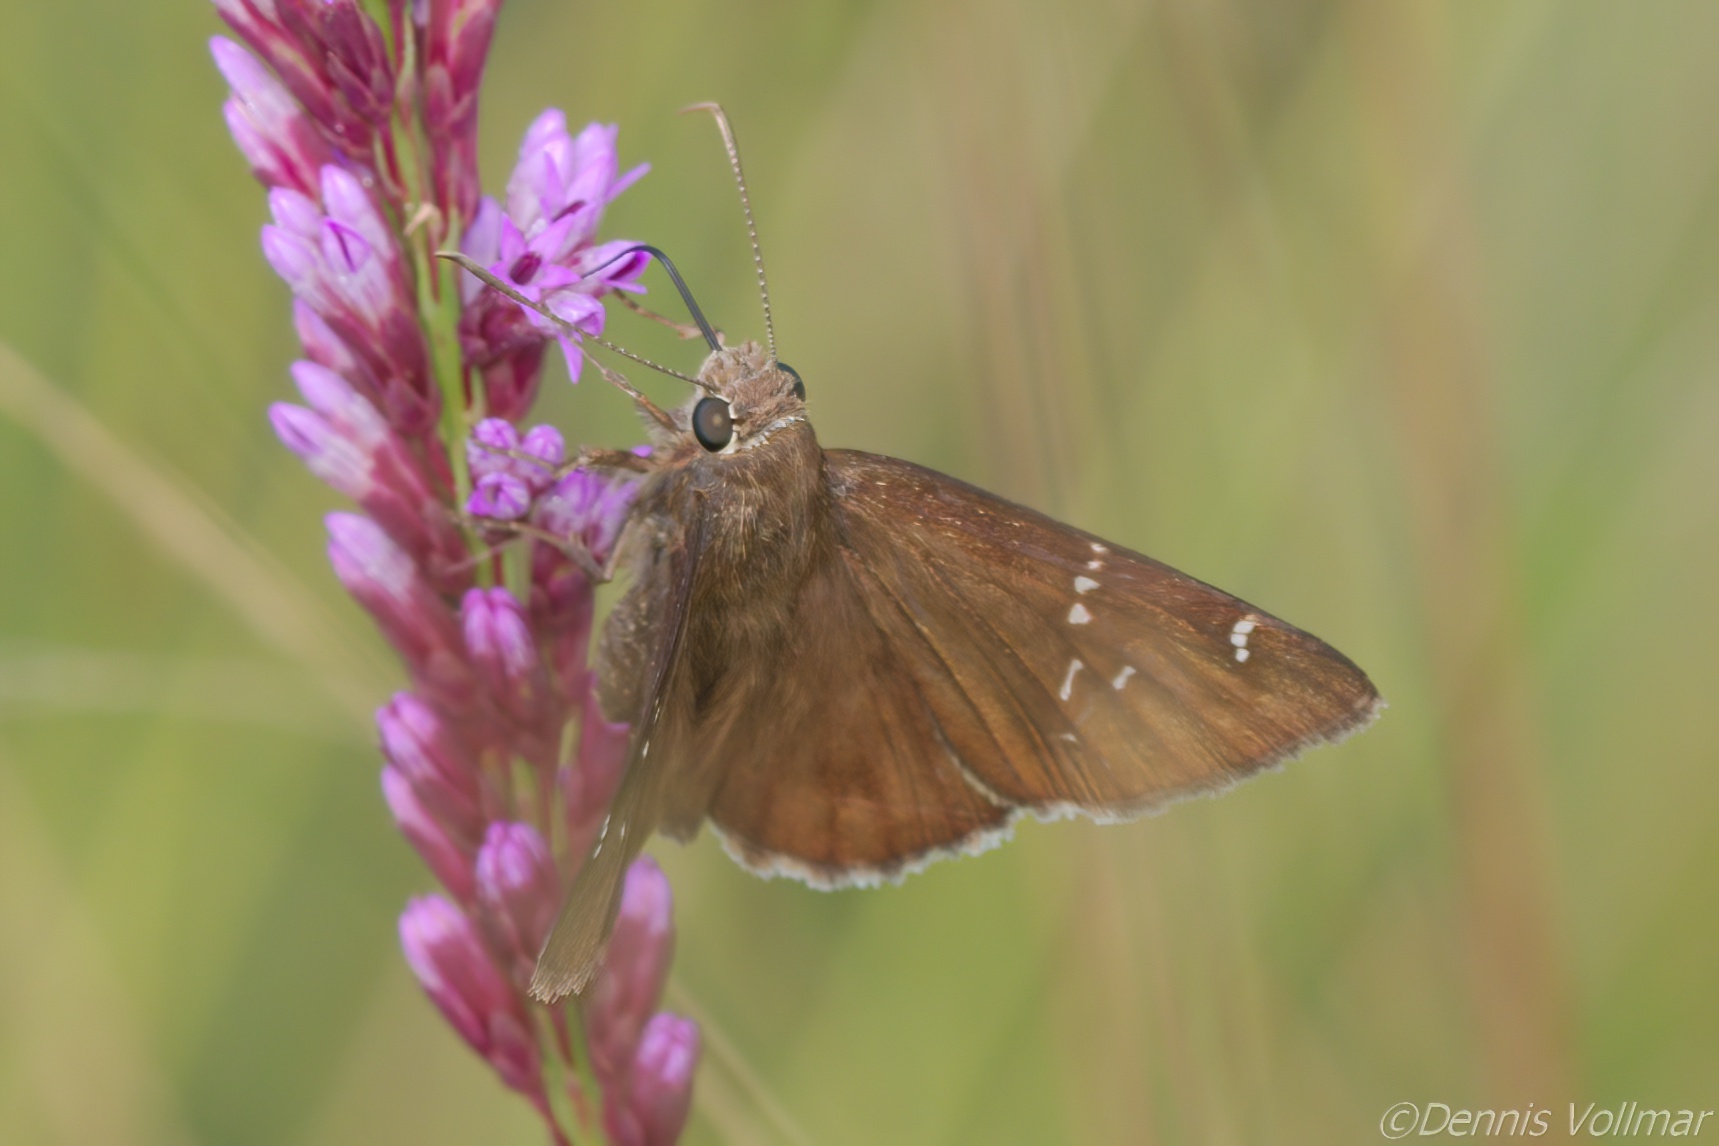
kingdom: Animalia
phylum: Arthropoda
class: Insecta
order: Lepidoptera
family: Hesperiidae
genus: Thorybes
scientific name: Thorybes mexicana
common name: Mexican cloudywing
